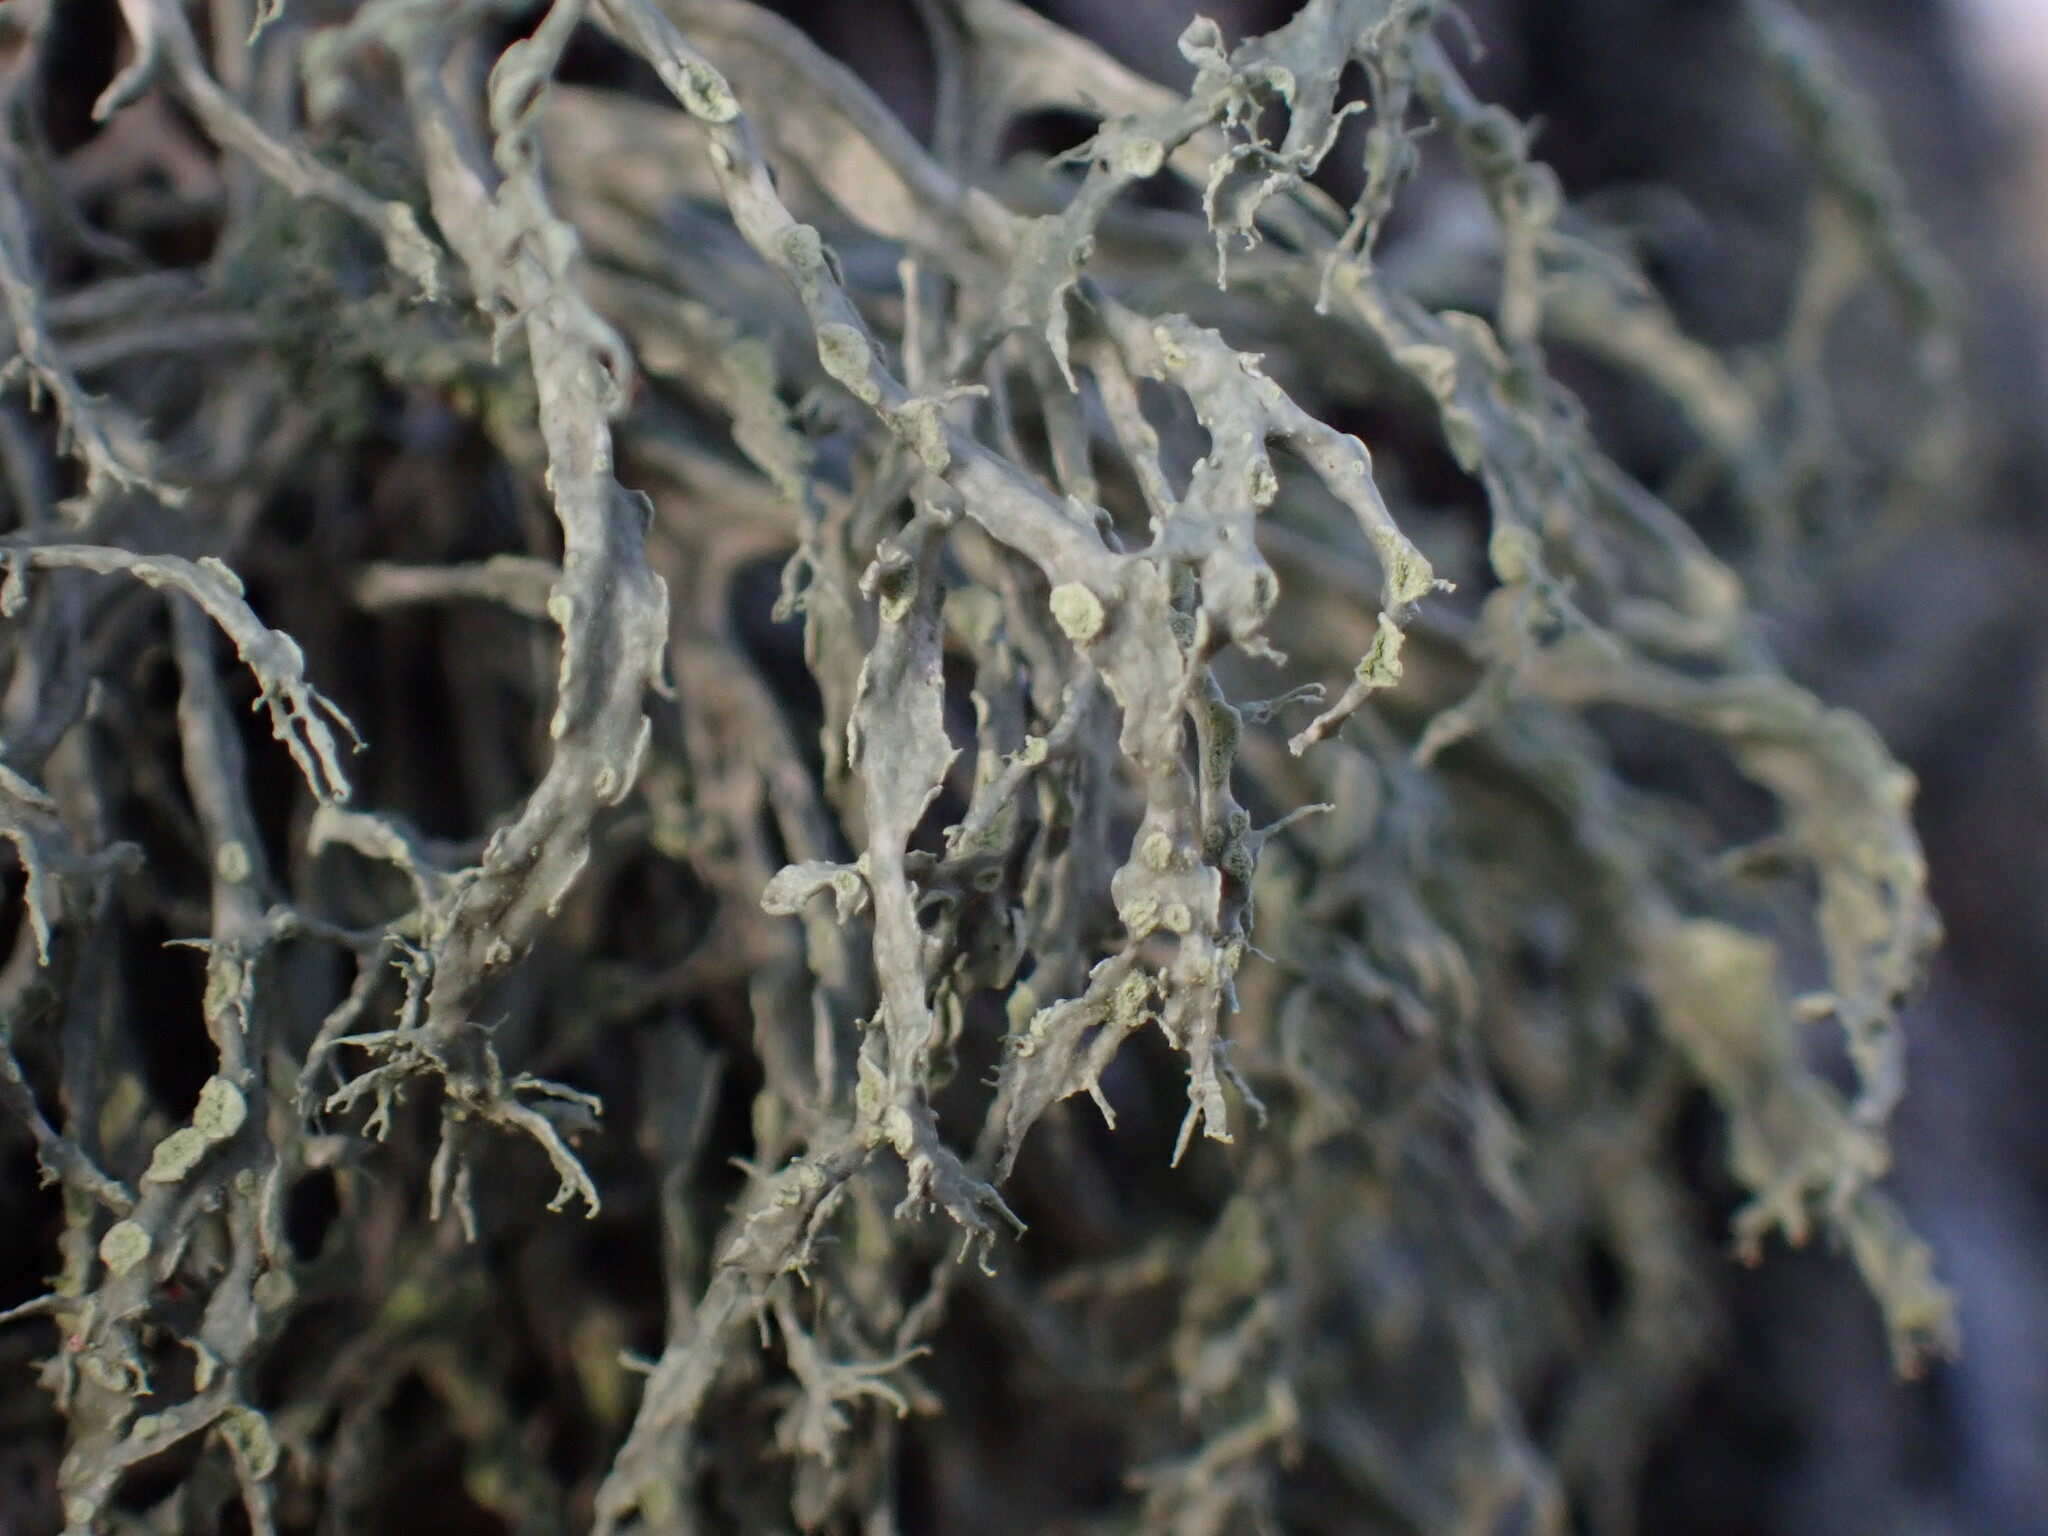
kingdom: Fungi
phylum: Ascomycota
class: Lecanoromycetes
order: Lecanorales
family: Ramalinaceae
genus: Ramalina
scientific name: Ramalina farinacea
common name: Farinose cartilage lichen
